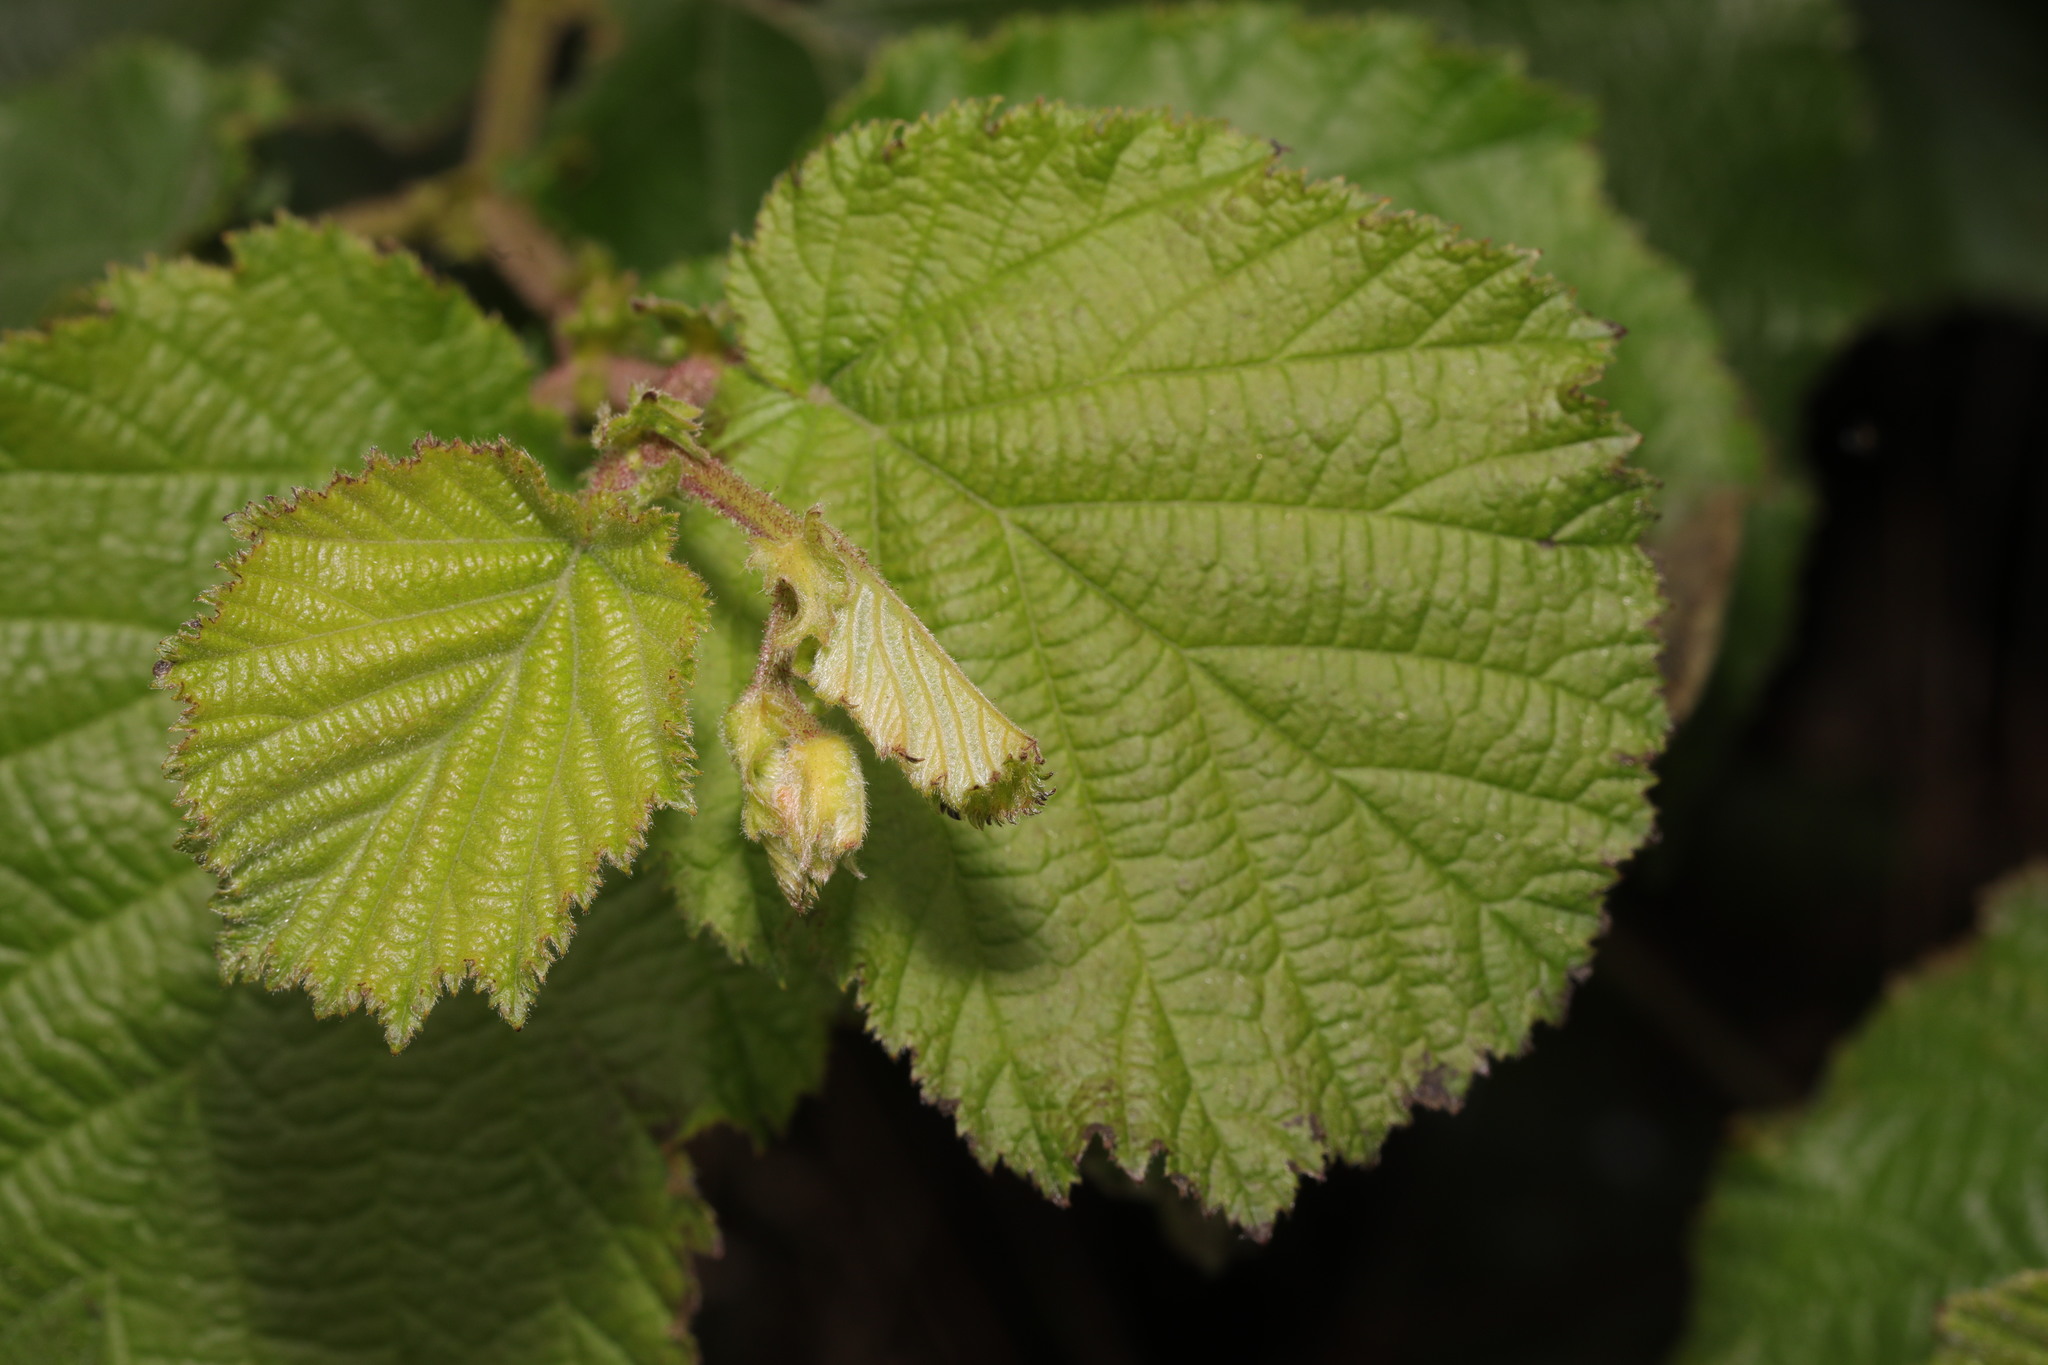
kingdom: Plantae
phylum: Tracheophyta
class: Magnoliopsida
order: Fagales
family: Betulaceae
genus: Corylus
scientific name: Corylus avellana
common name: European hazel
